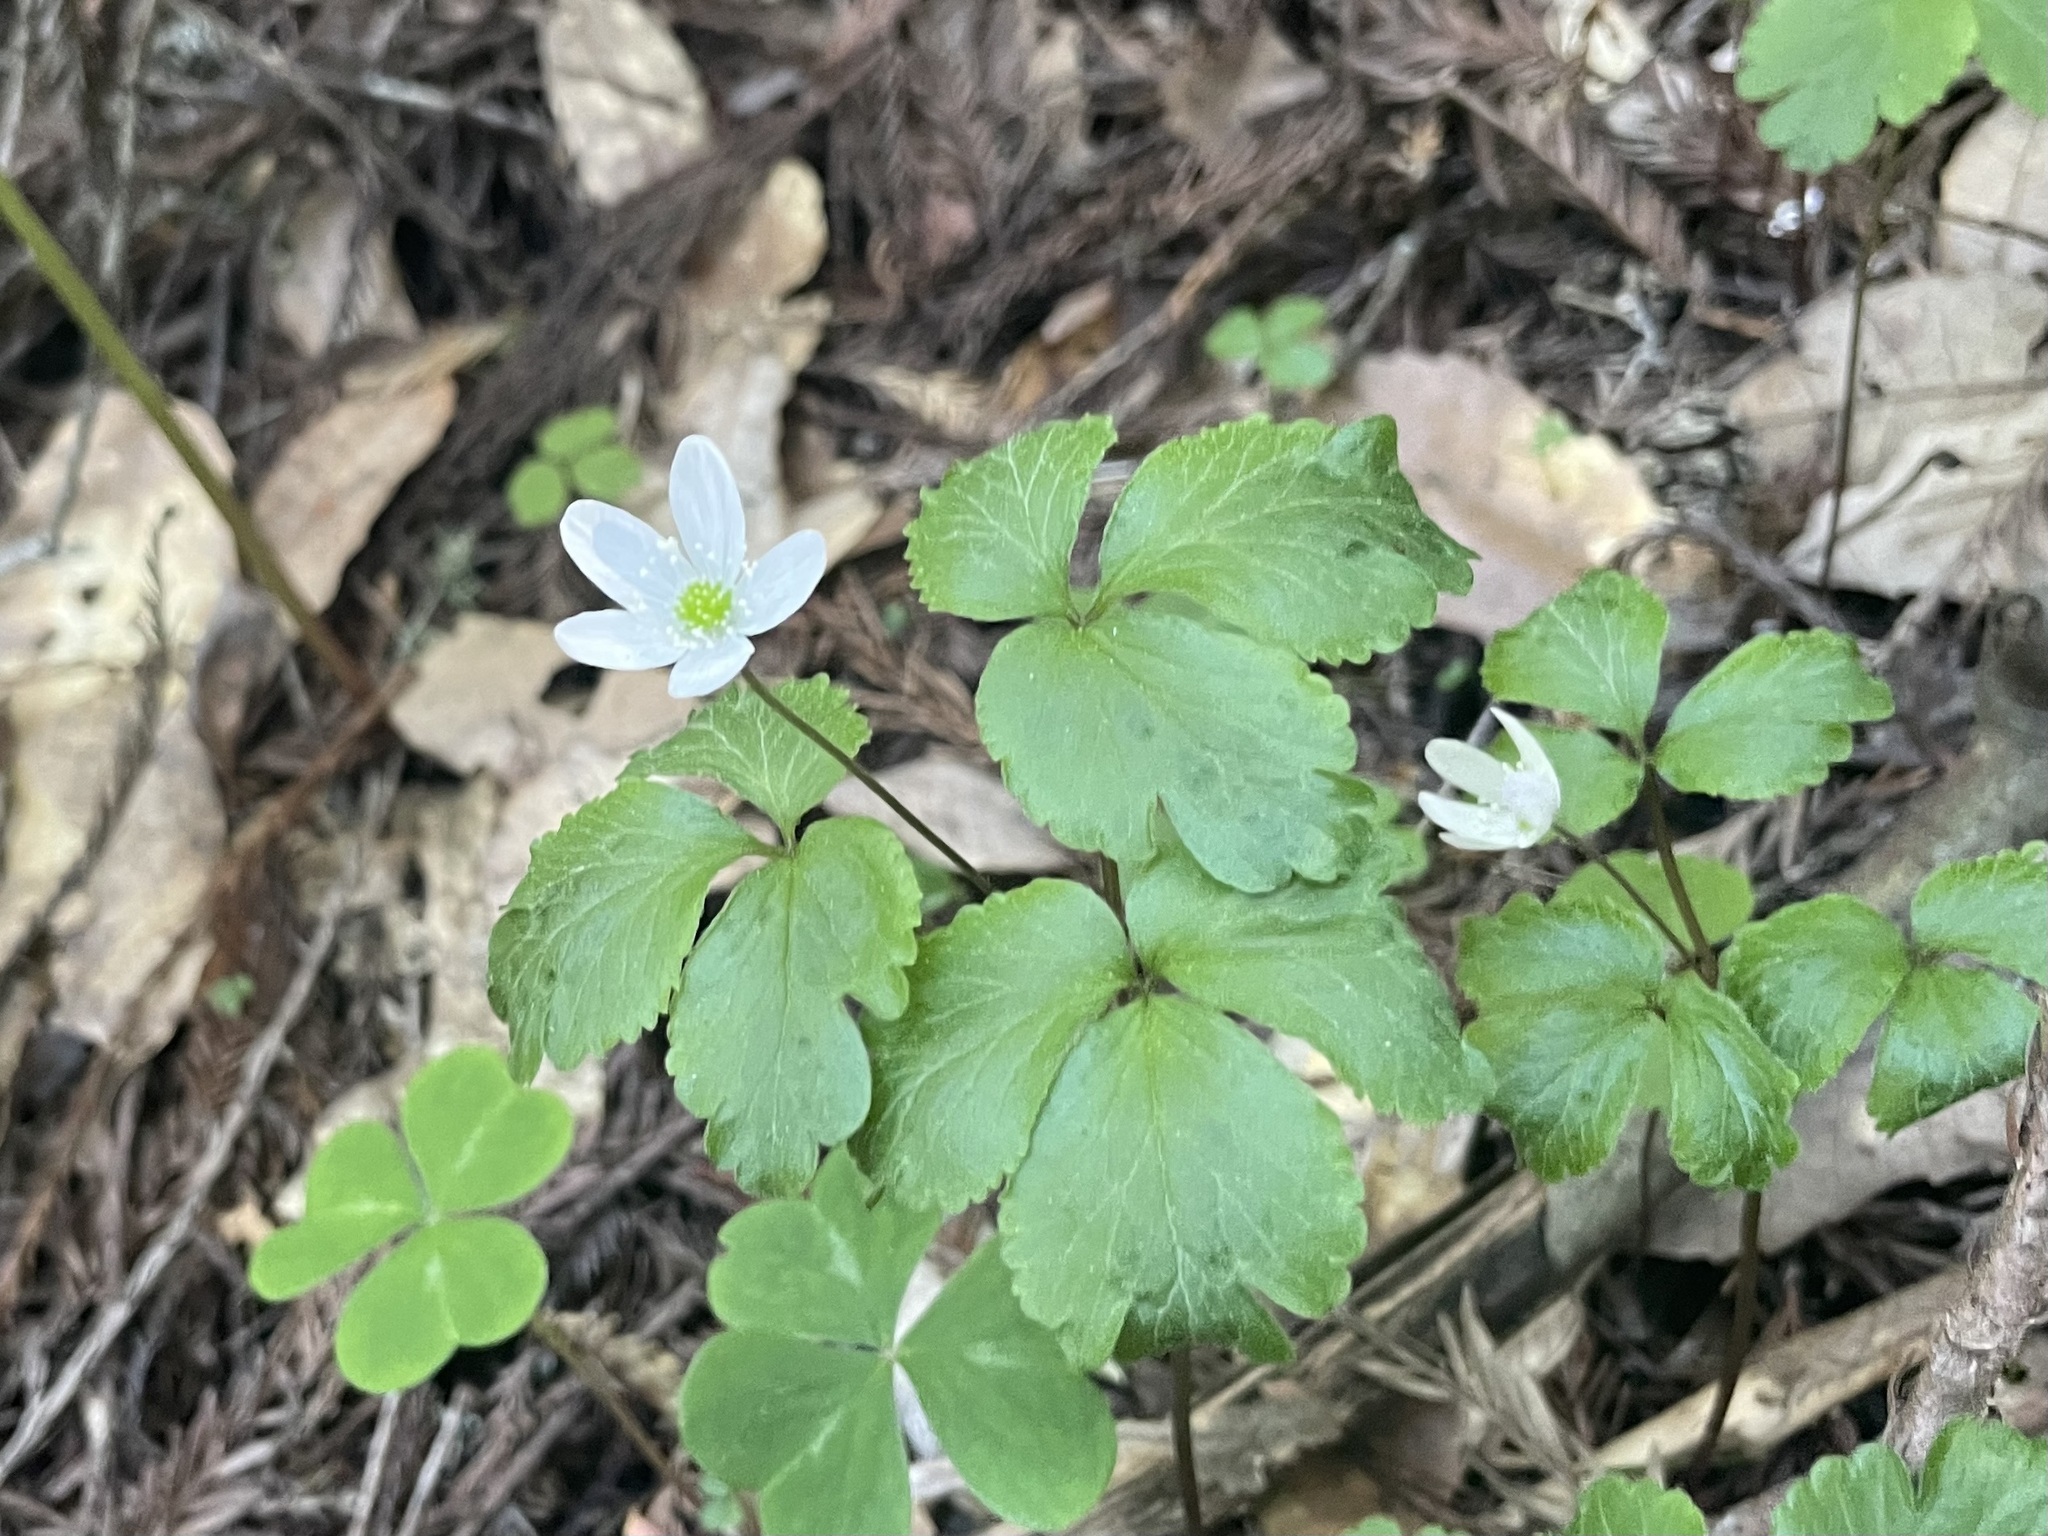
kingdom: Plantae
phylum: Tracheophyta
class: Magnoliopsida
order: Ranunculales
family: Ranunculaceae
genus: Anemone
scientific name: Anemone
